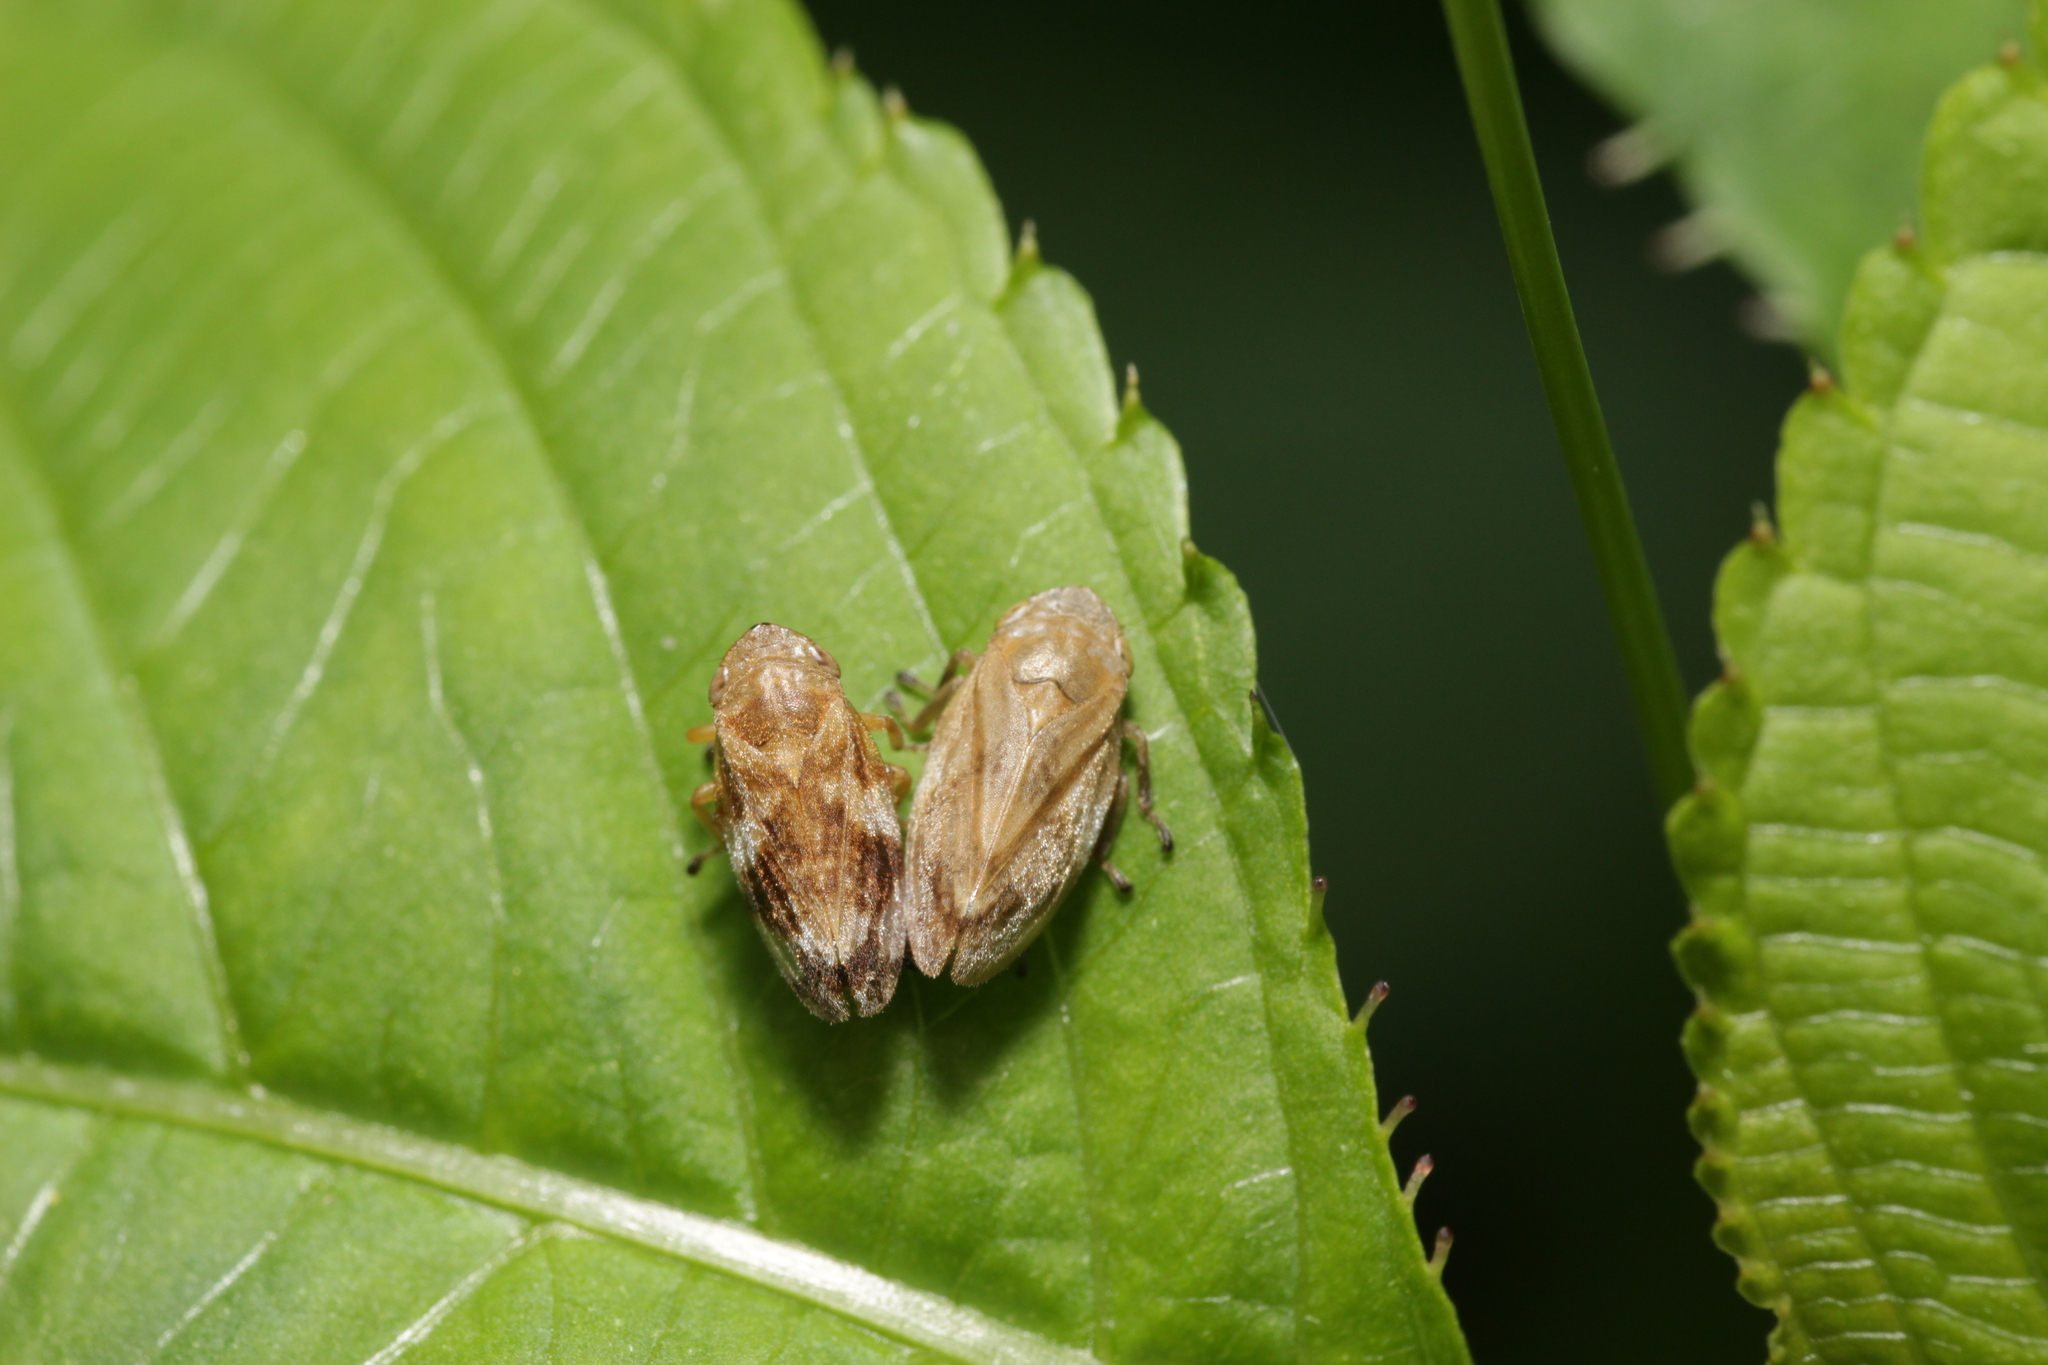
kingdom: Animalia
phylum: Arthropoda
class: Insecta
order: Hemiptera
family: Aphrophoridae
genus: Philaenus
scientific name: Philaenus spumarius
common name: Meadow spittlebug
